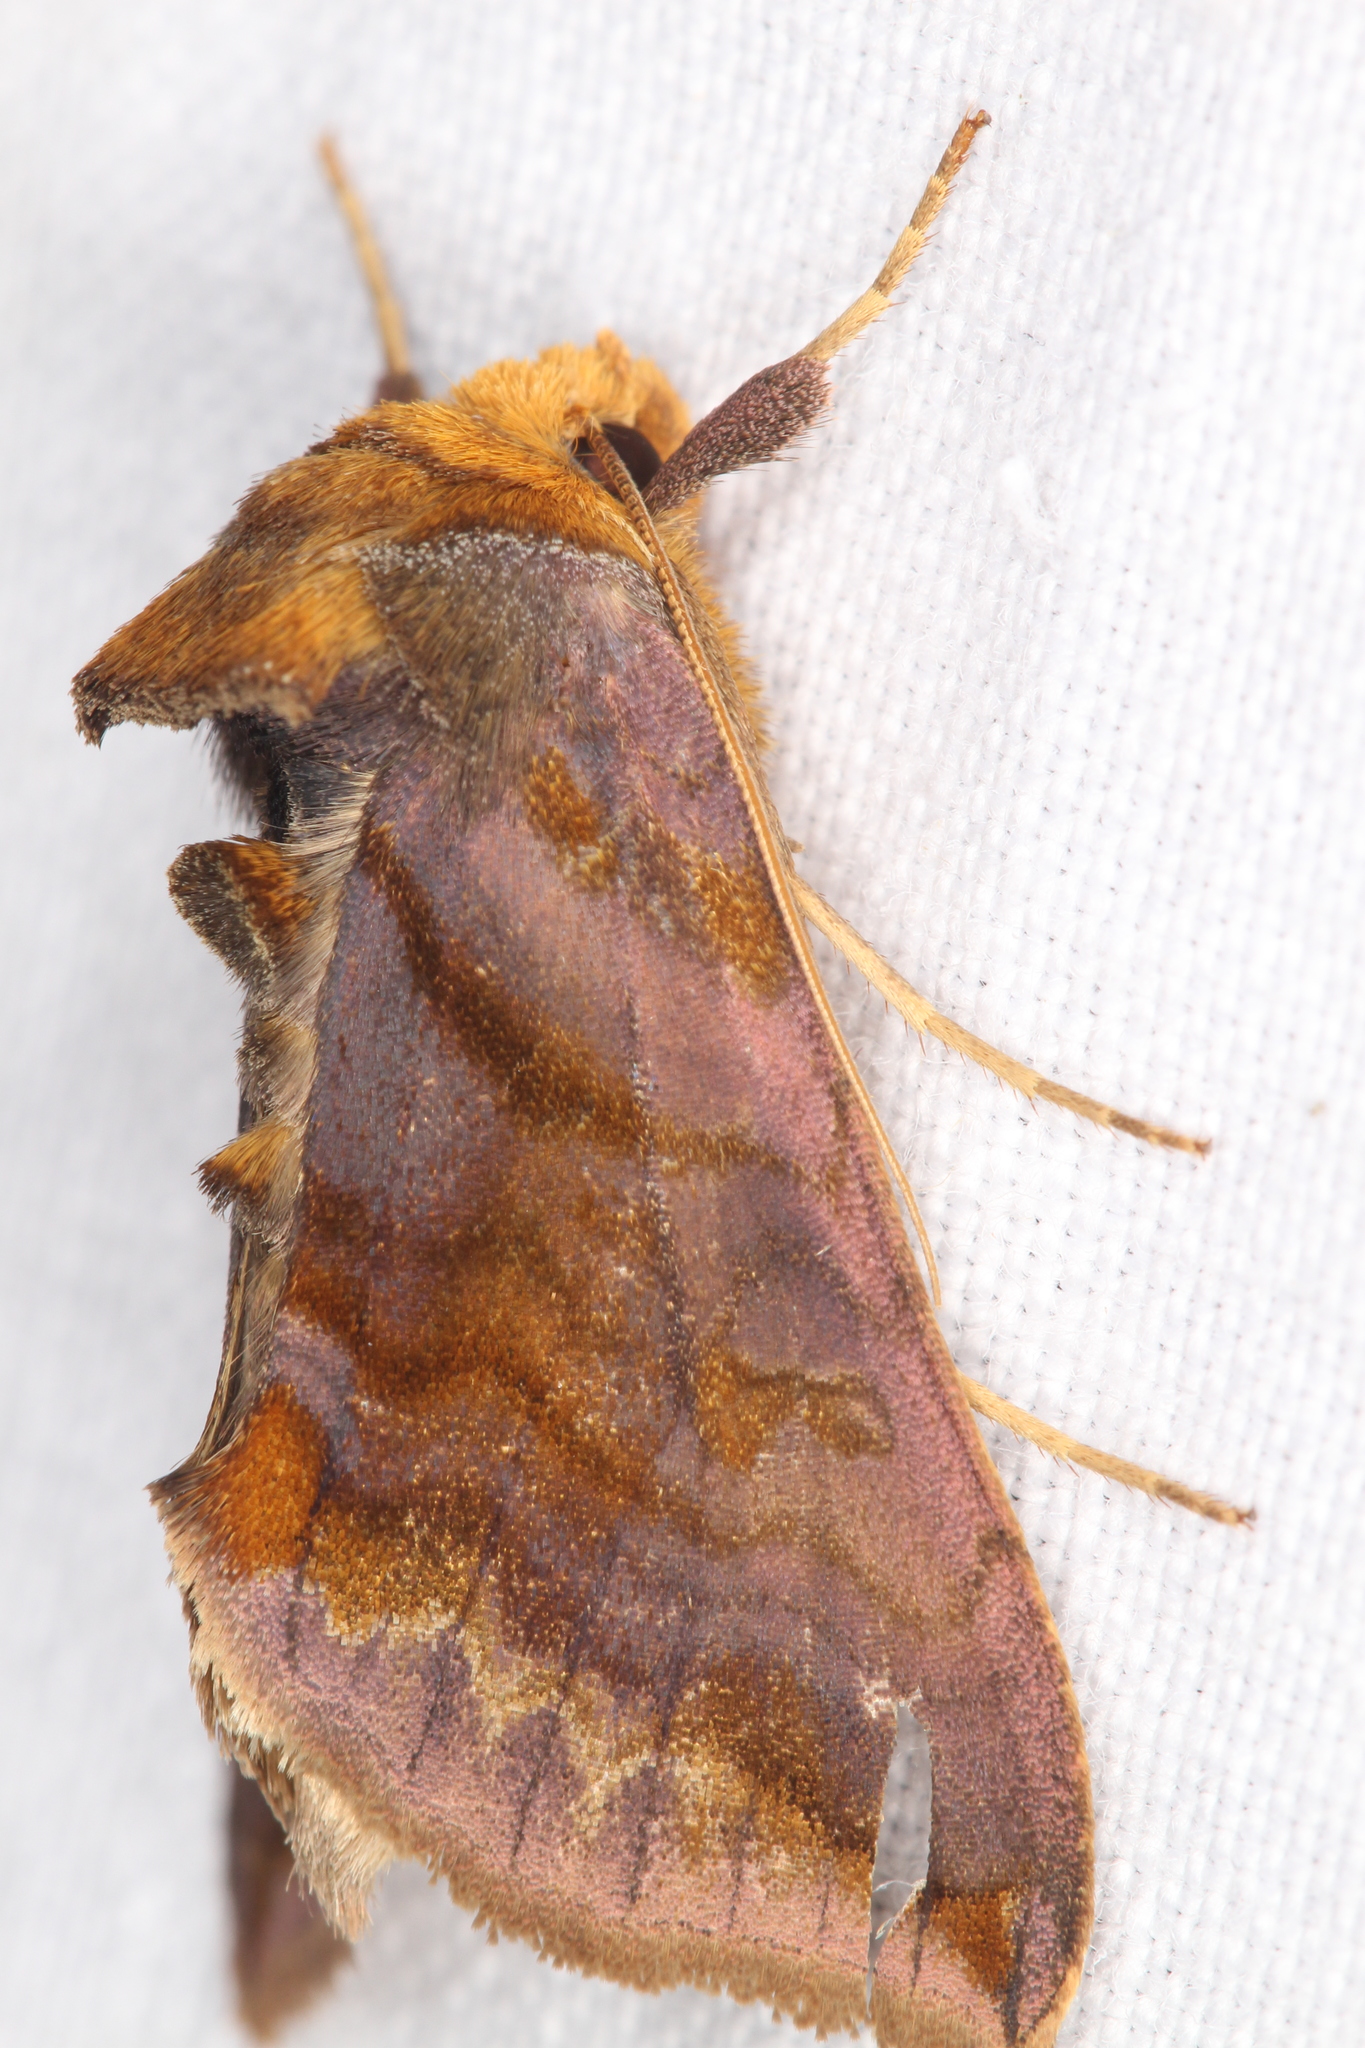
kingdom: Animalia
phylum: Arthropoda
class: Insecta
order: Lepidoptera
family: Noctuidae
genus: Allagrapha
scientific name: Allagrapha aerea
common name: Unspotted looper moth
